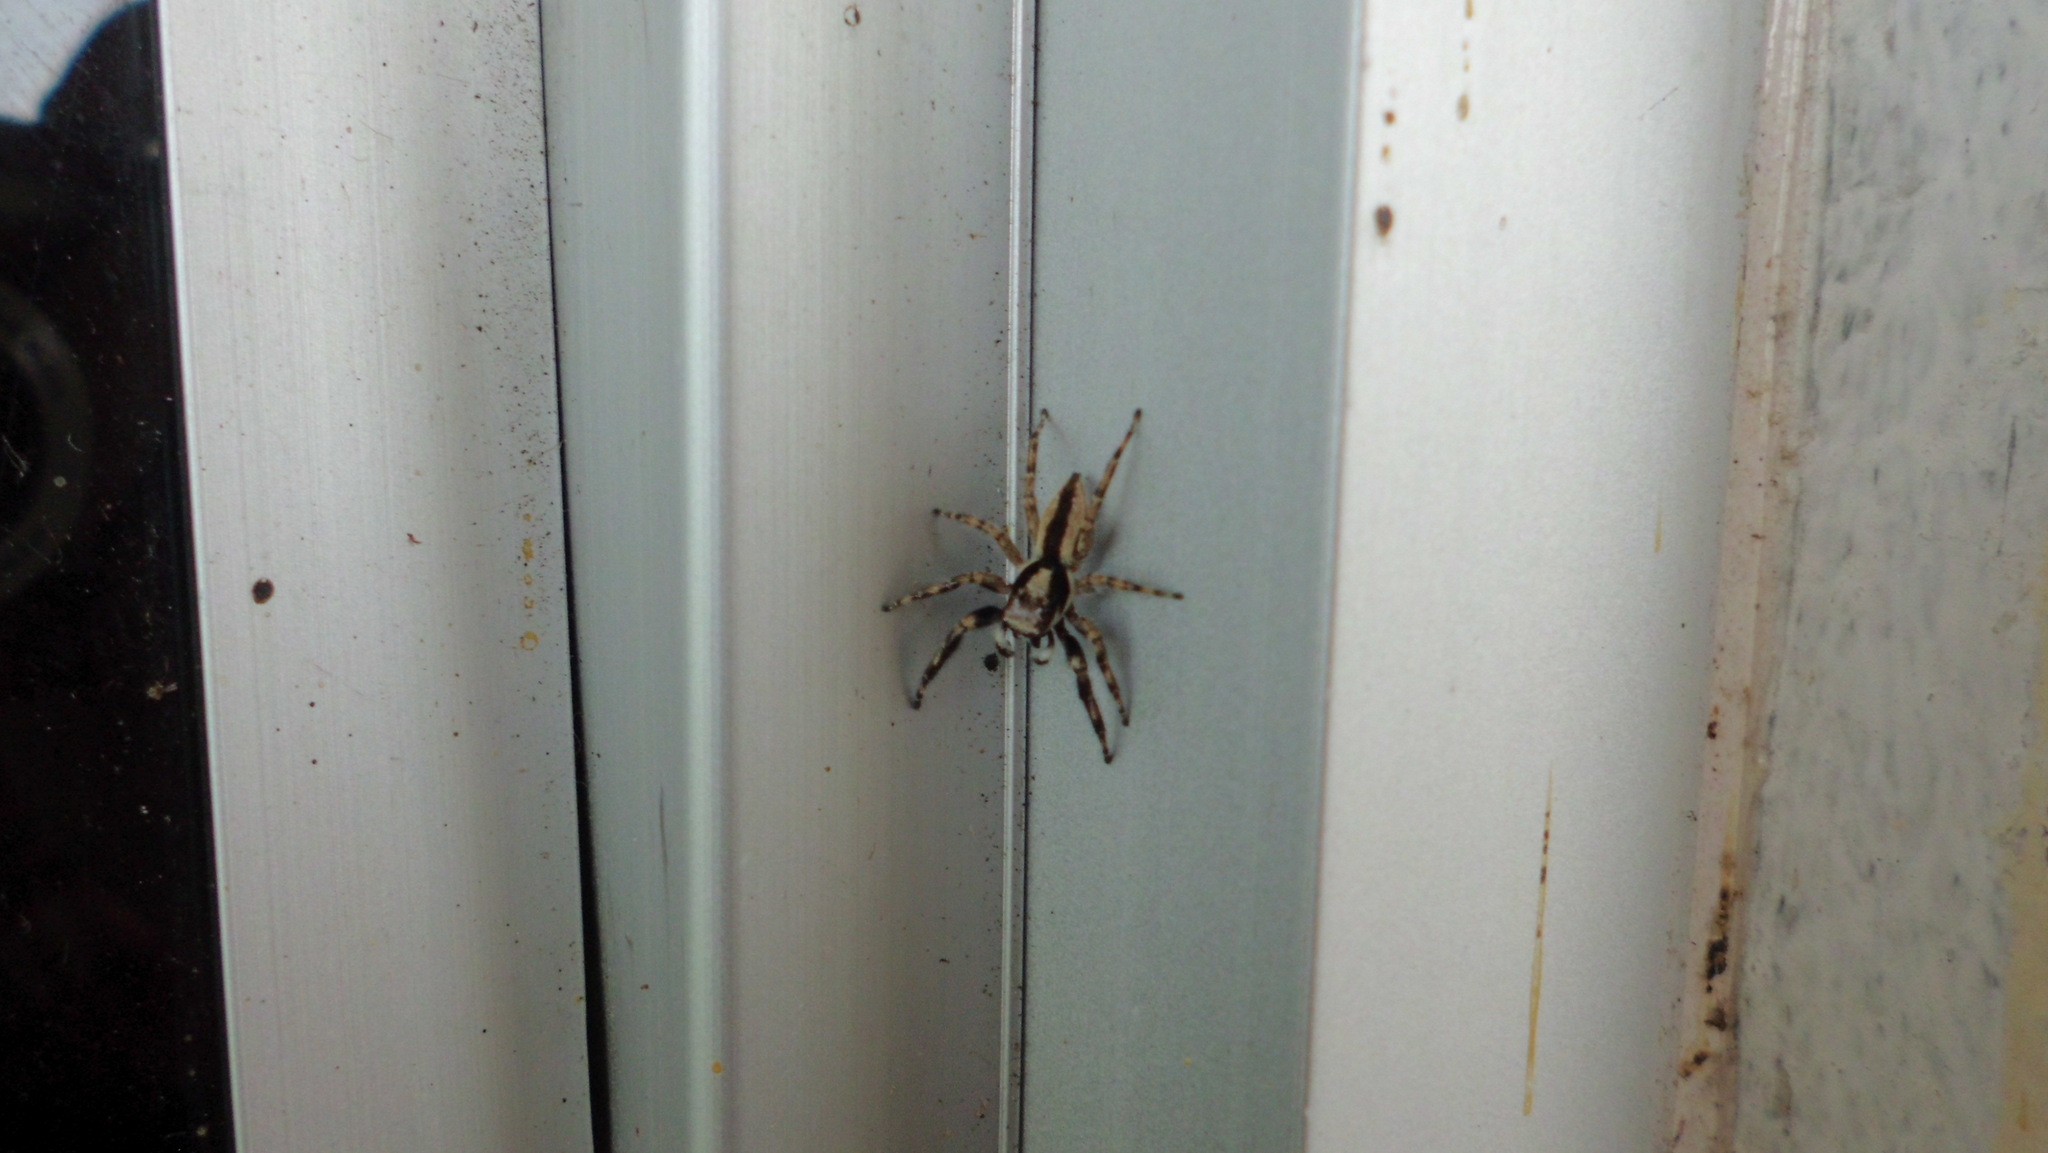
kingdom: Animalia
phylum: Arthropoda
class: Arachnida
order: Araneae
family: Salticidae
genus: Menemerus
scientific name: Menemerus bivittatus
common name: Gray wall jumper
